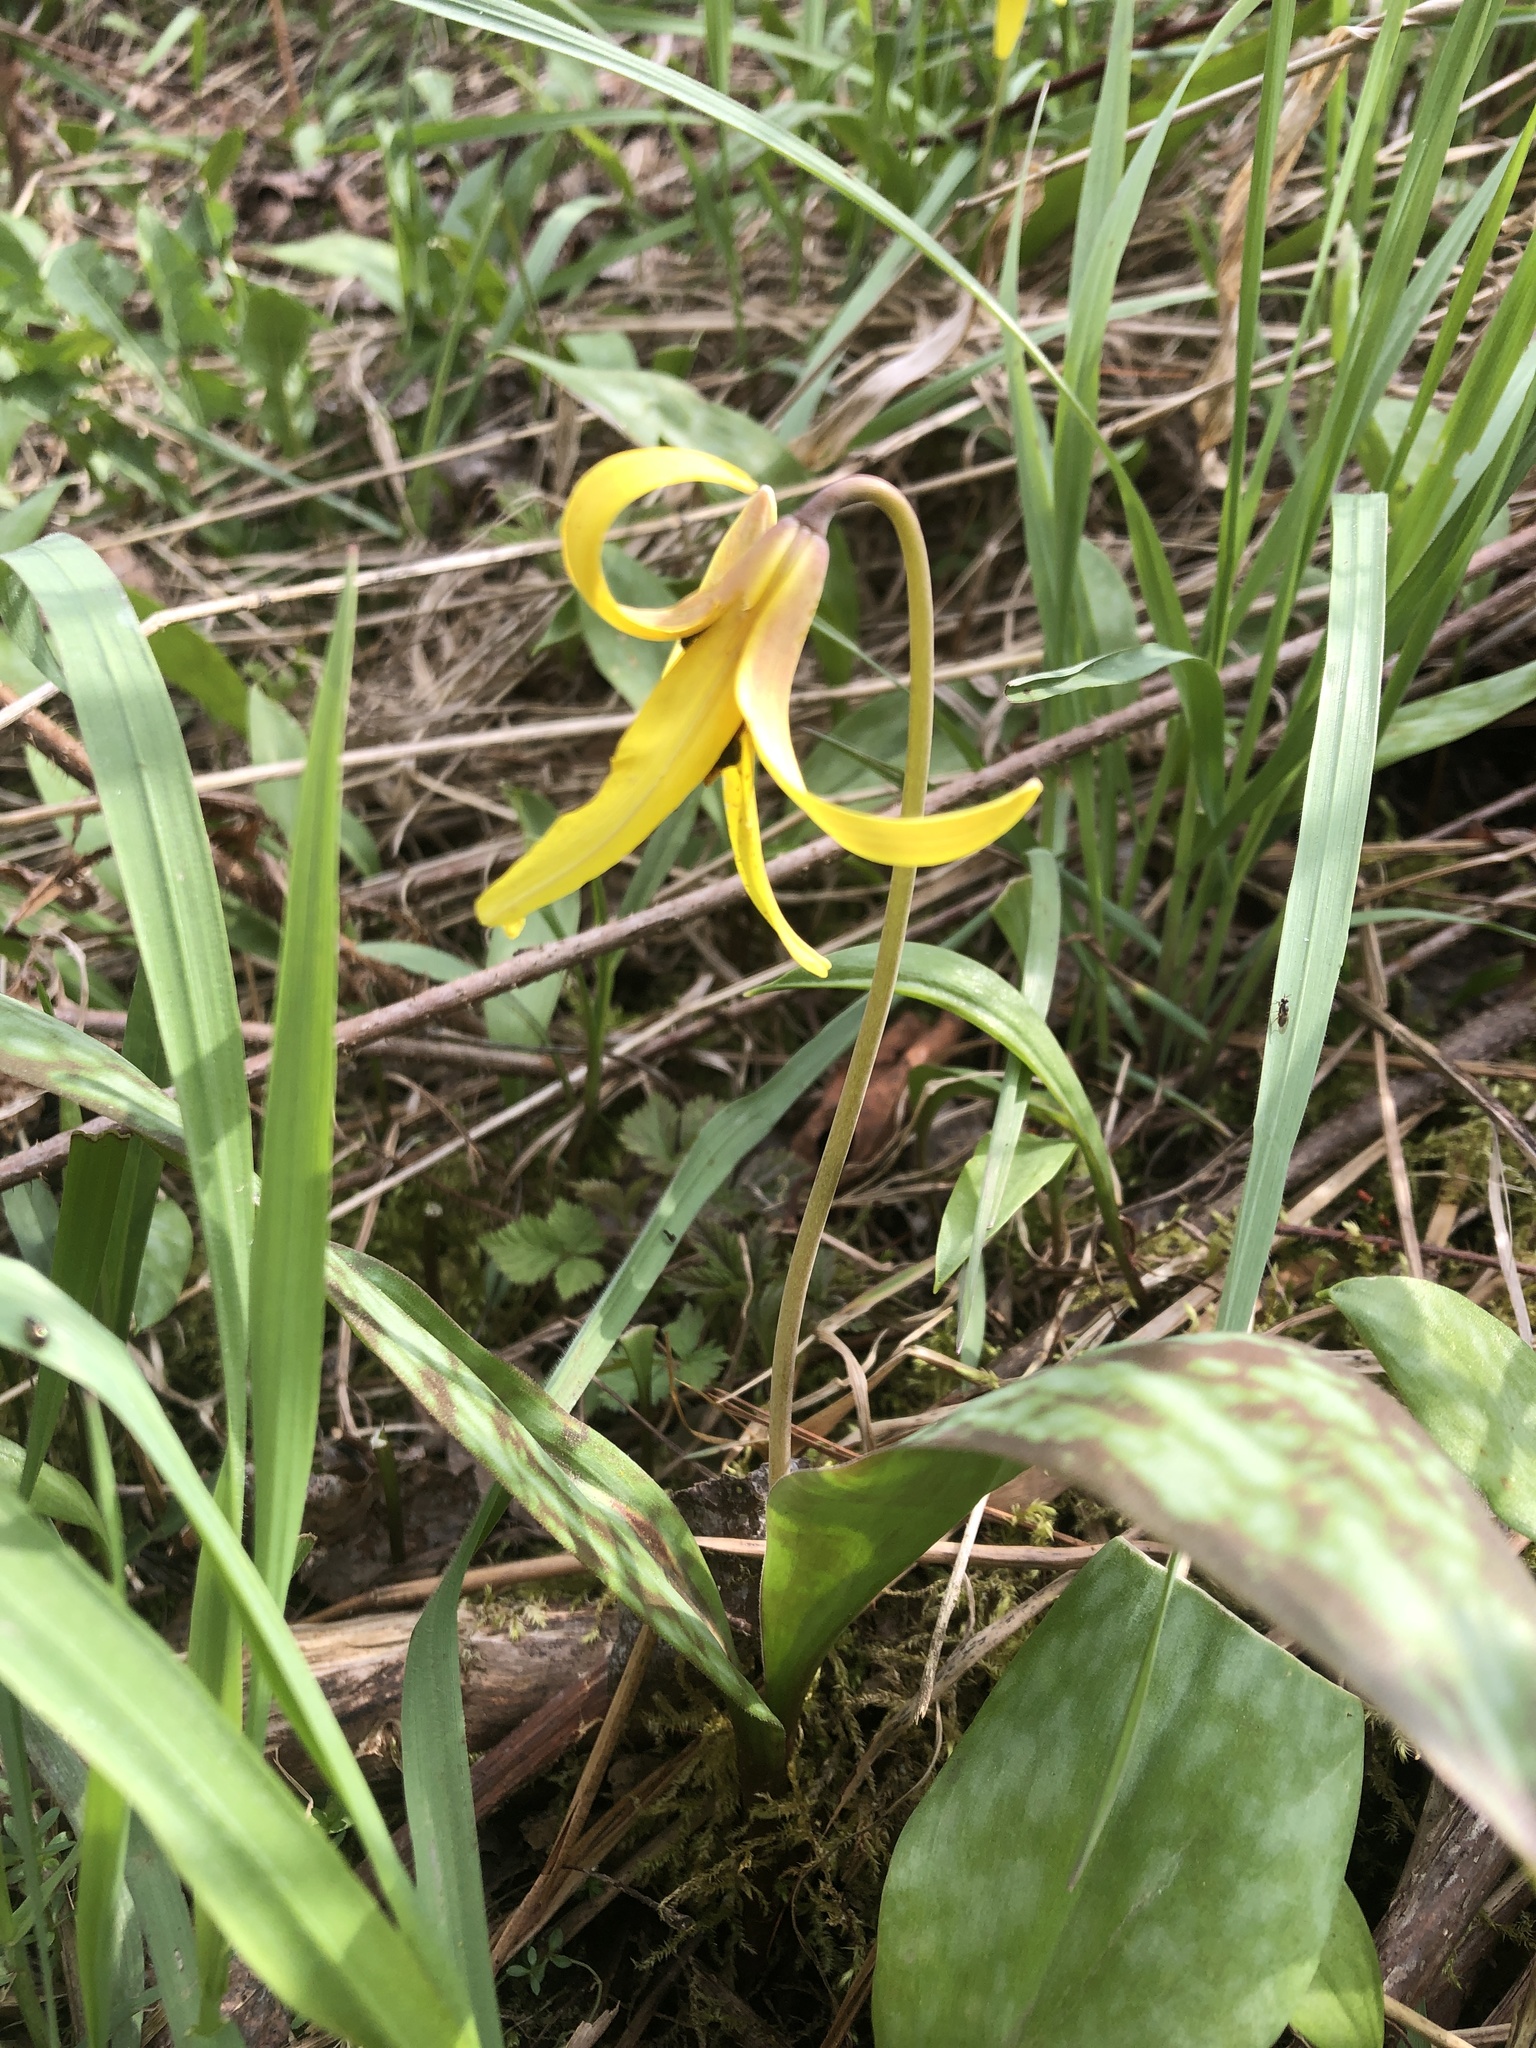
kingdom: Plantae
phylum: Tracheophyta
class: Liliopsida
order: Liliales
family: Liliaceae
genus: Erythronium
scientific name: Erythronium americanum
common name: Yellow adder's-tongue
